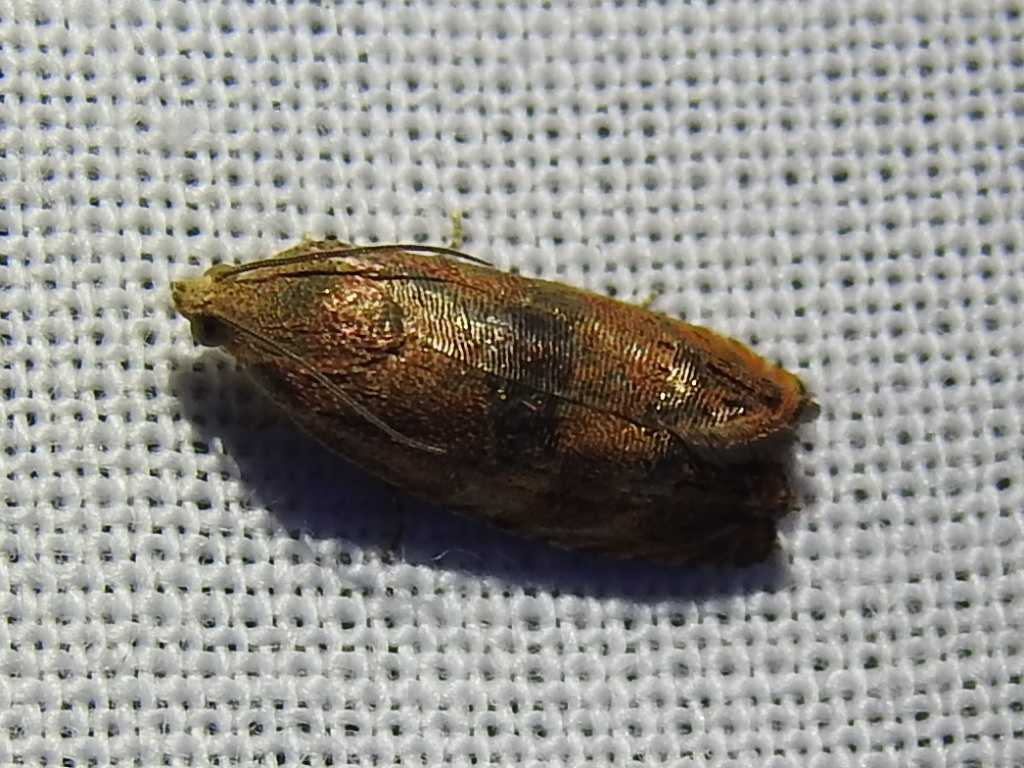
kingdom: Animalia
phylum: Arthropoda
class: Insecta
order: Lepidoptera
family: Tortricidae
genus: Cydia
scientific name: Cydia latiferreana
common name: Filbertworm moth
